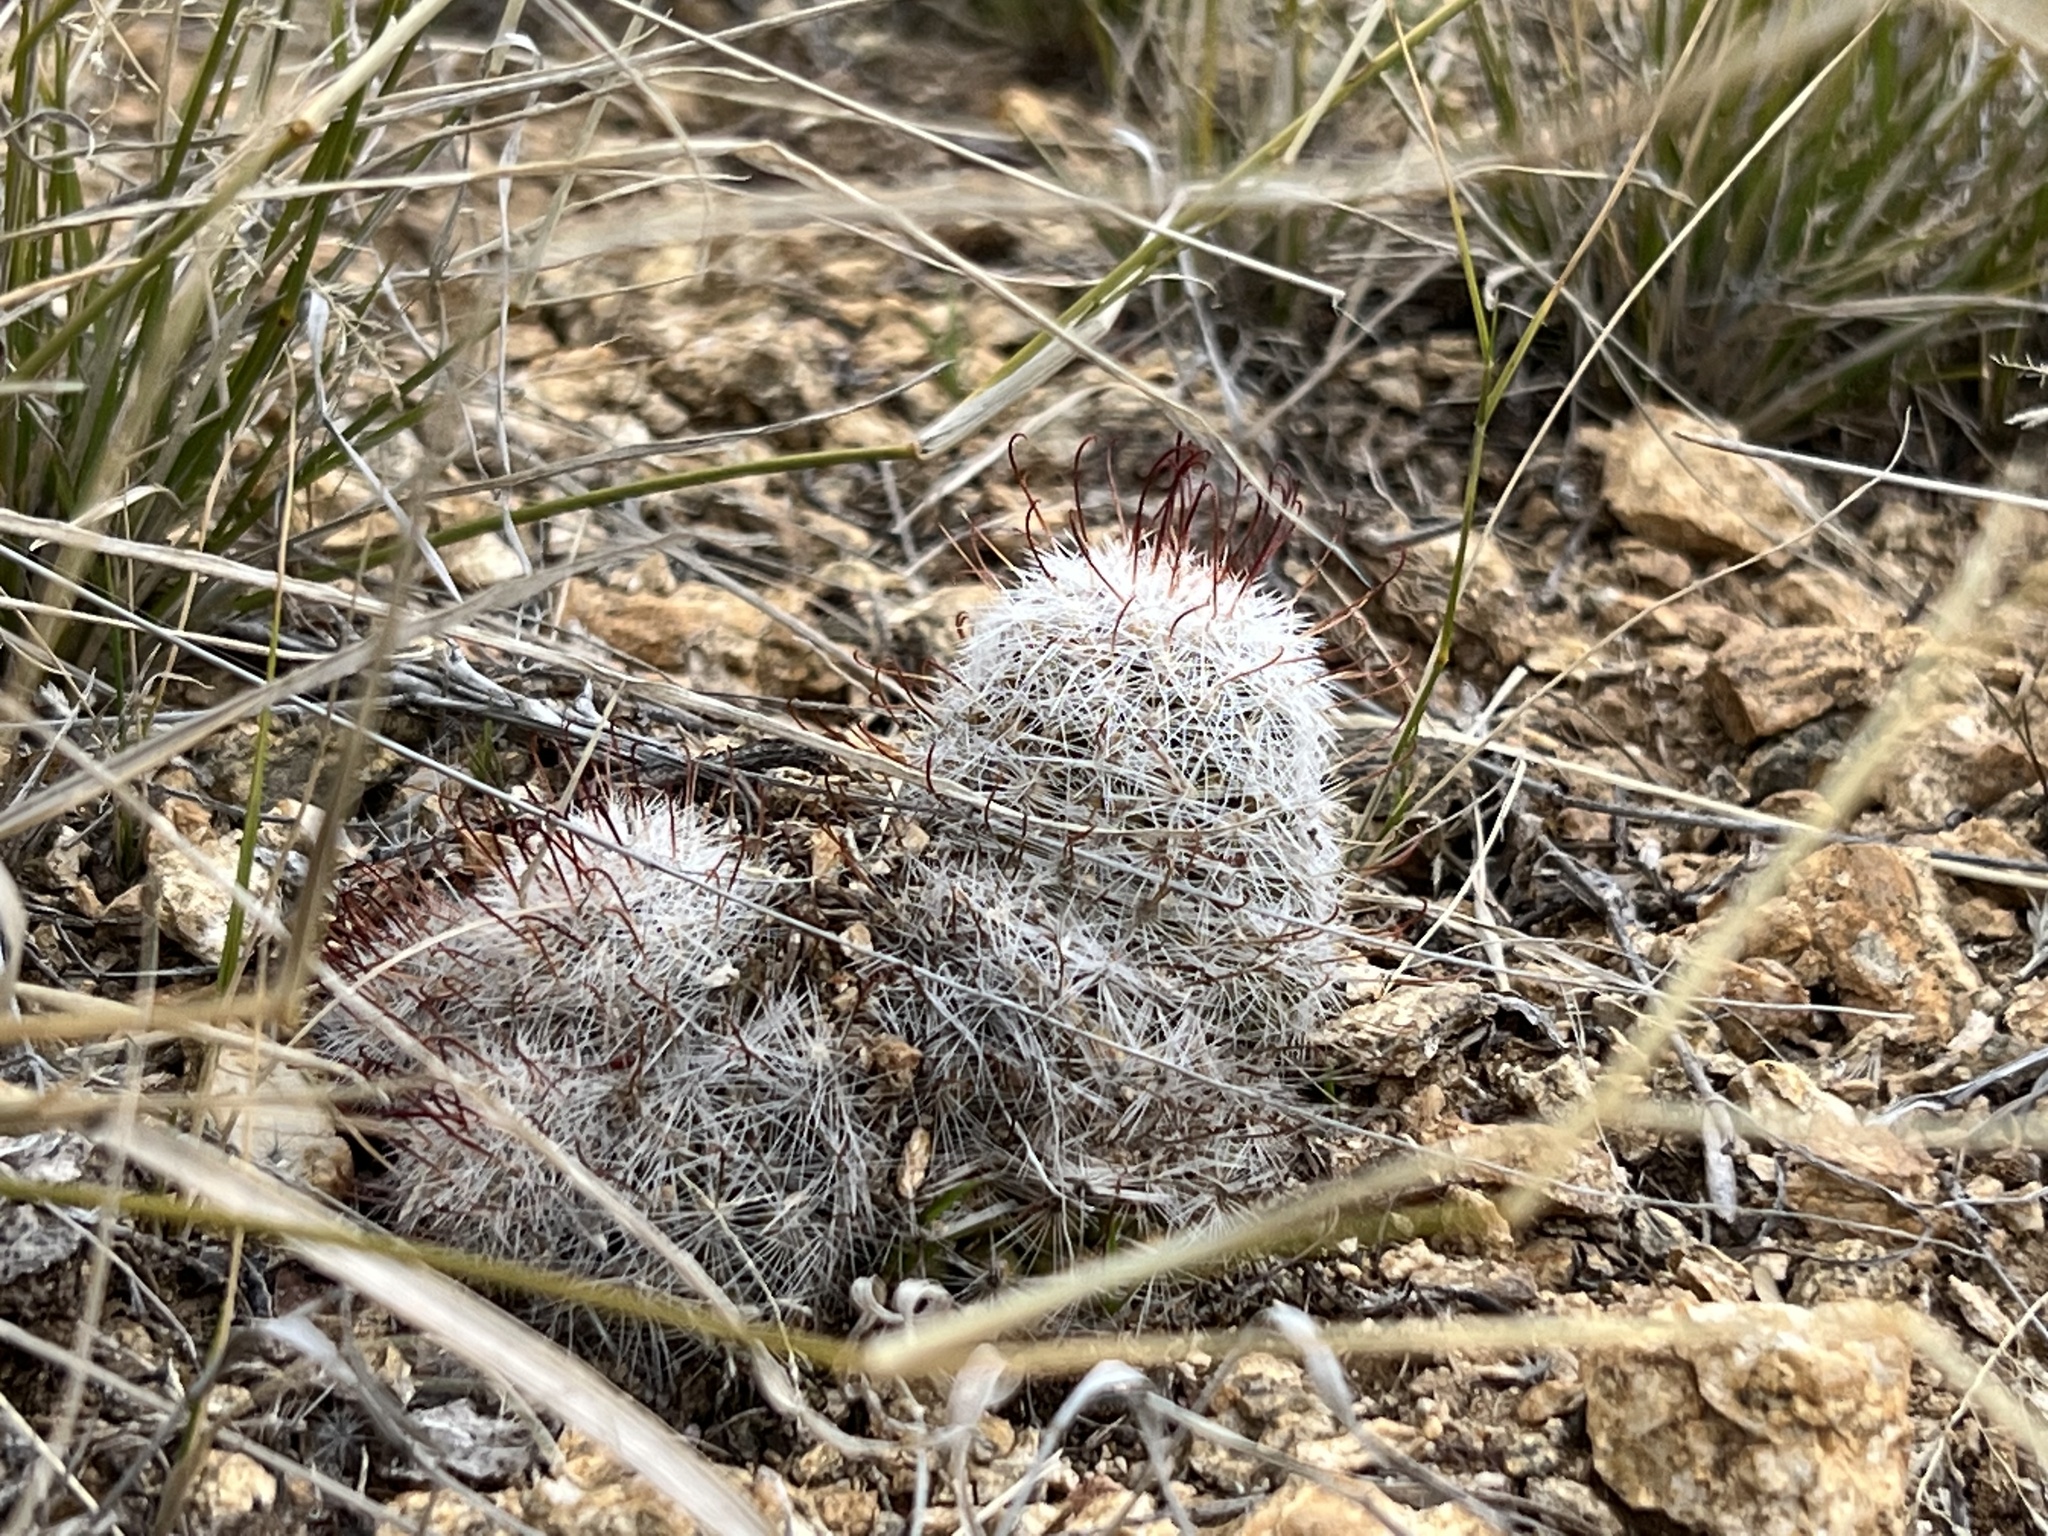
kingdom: Plantae
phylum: Tracheophyta
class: Magnoliopsida
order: Caryophyllales
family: Cactaceae
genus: Cochemiea
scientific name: Cochemiea grahamii
